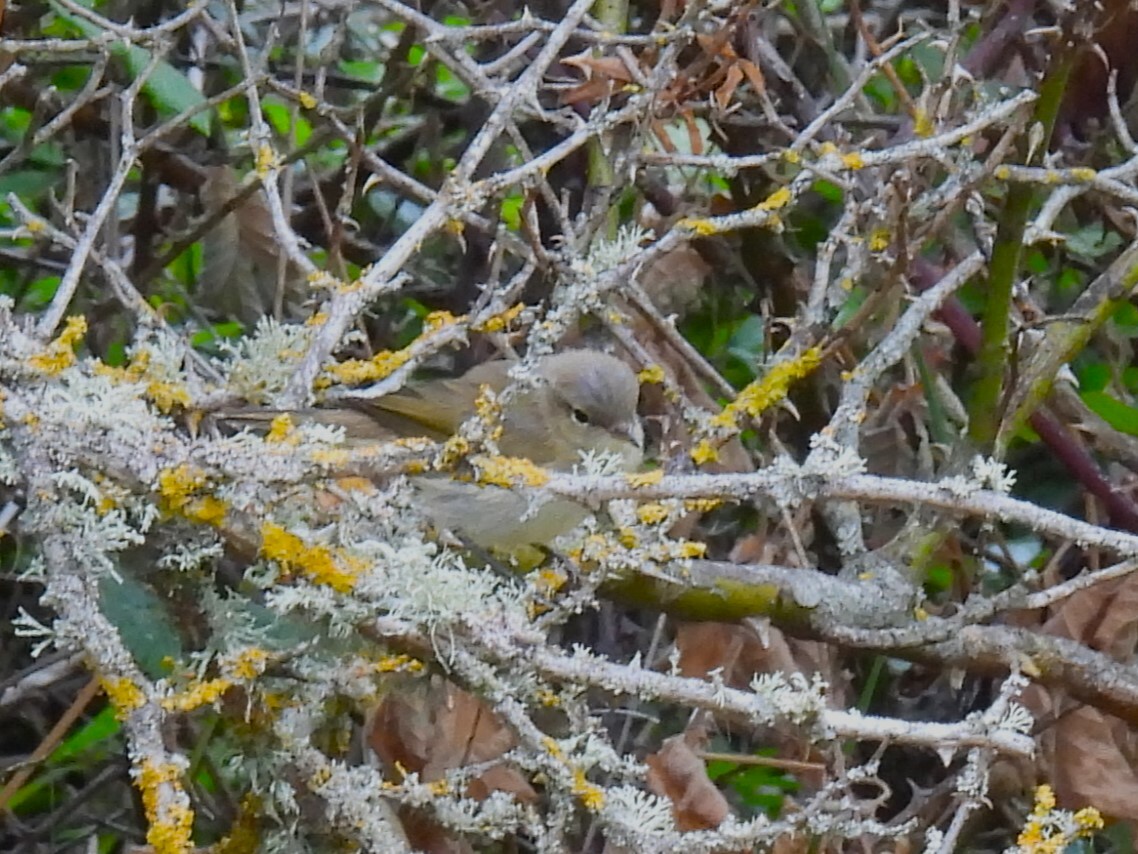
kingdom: Animalia
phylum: Chordata
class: Aves
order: Passeriformes
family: Phylloscopidae
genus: Phylloscopus
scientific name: Phylloscopus collybita
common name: Common chiffchaff
